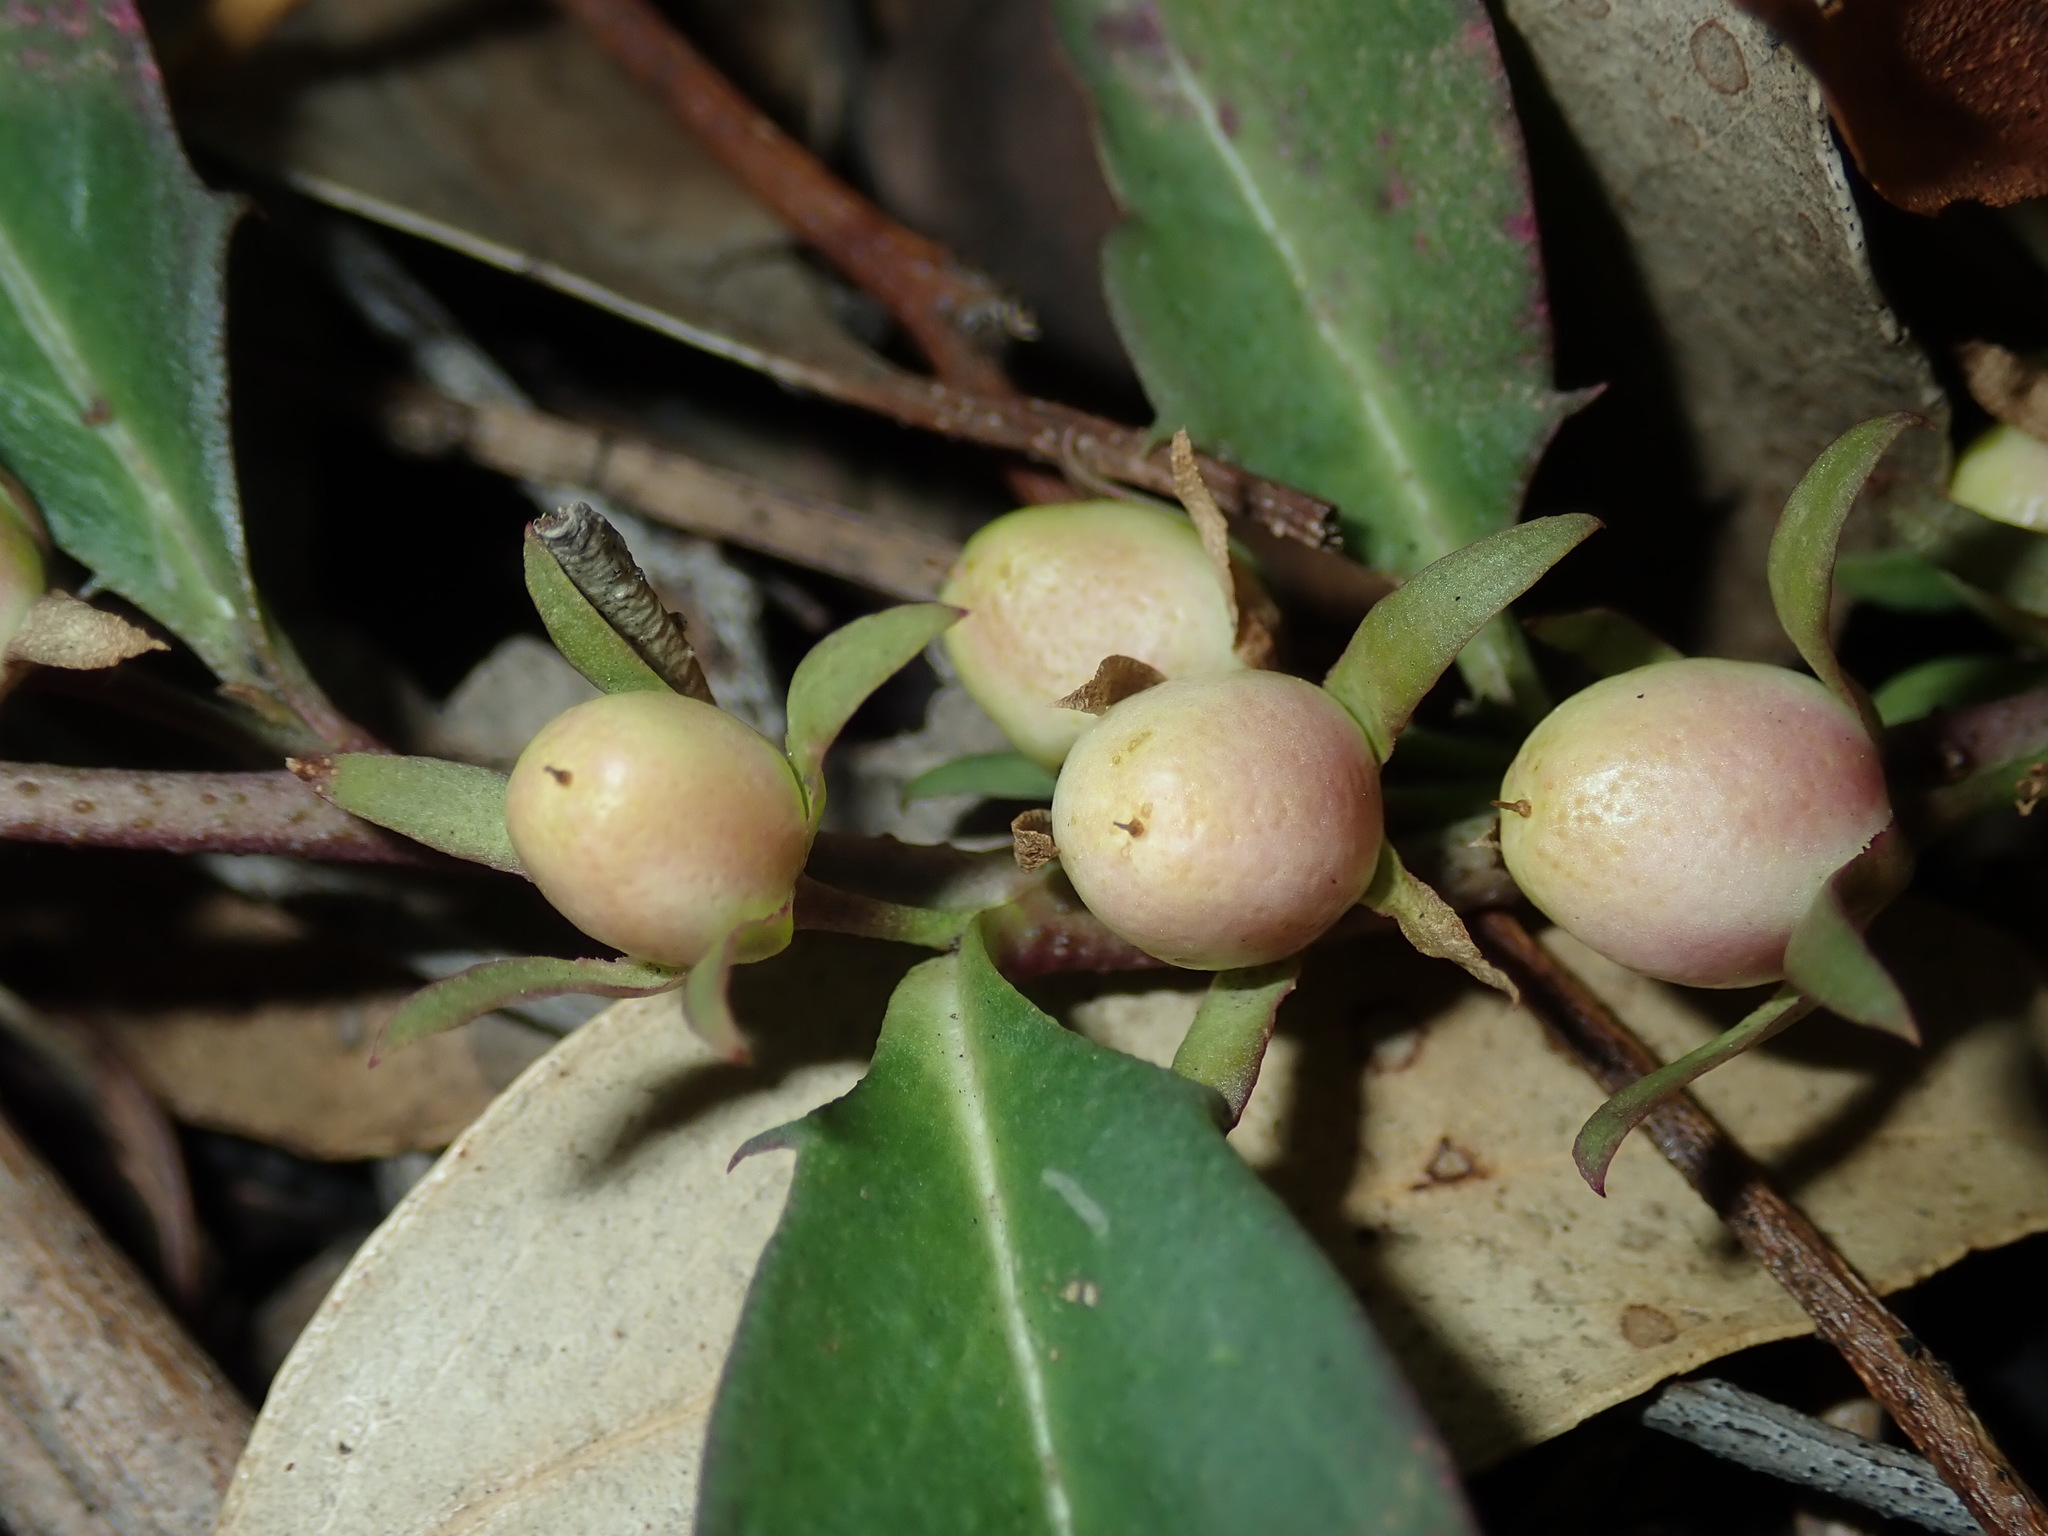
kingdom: Plantae
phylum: Tracheophyta
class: Magnoliopsida
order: Lamiales
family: Scrophulariaceae
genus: Eremophila
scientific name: Eremophila debilis
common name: Winter-apple
